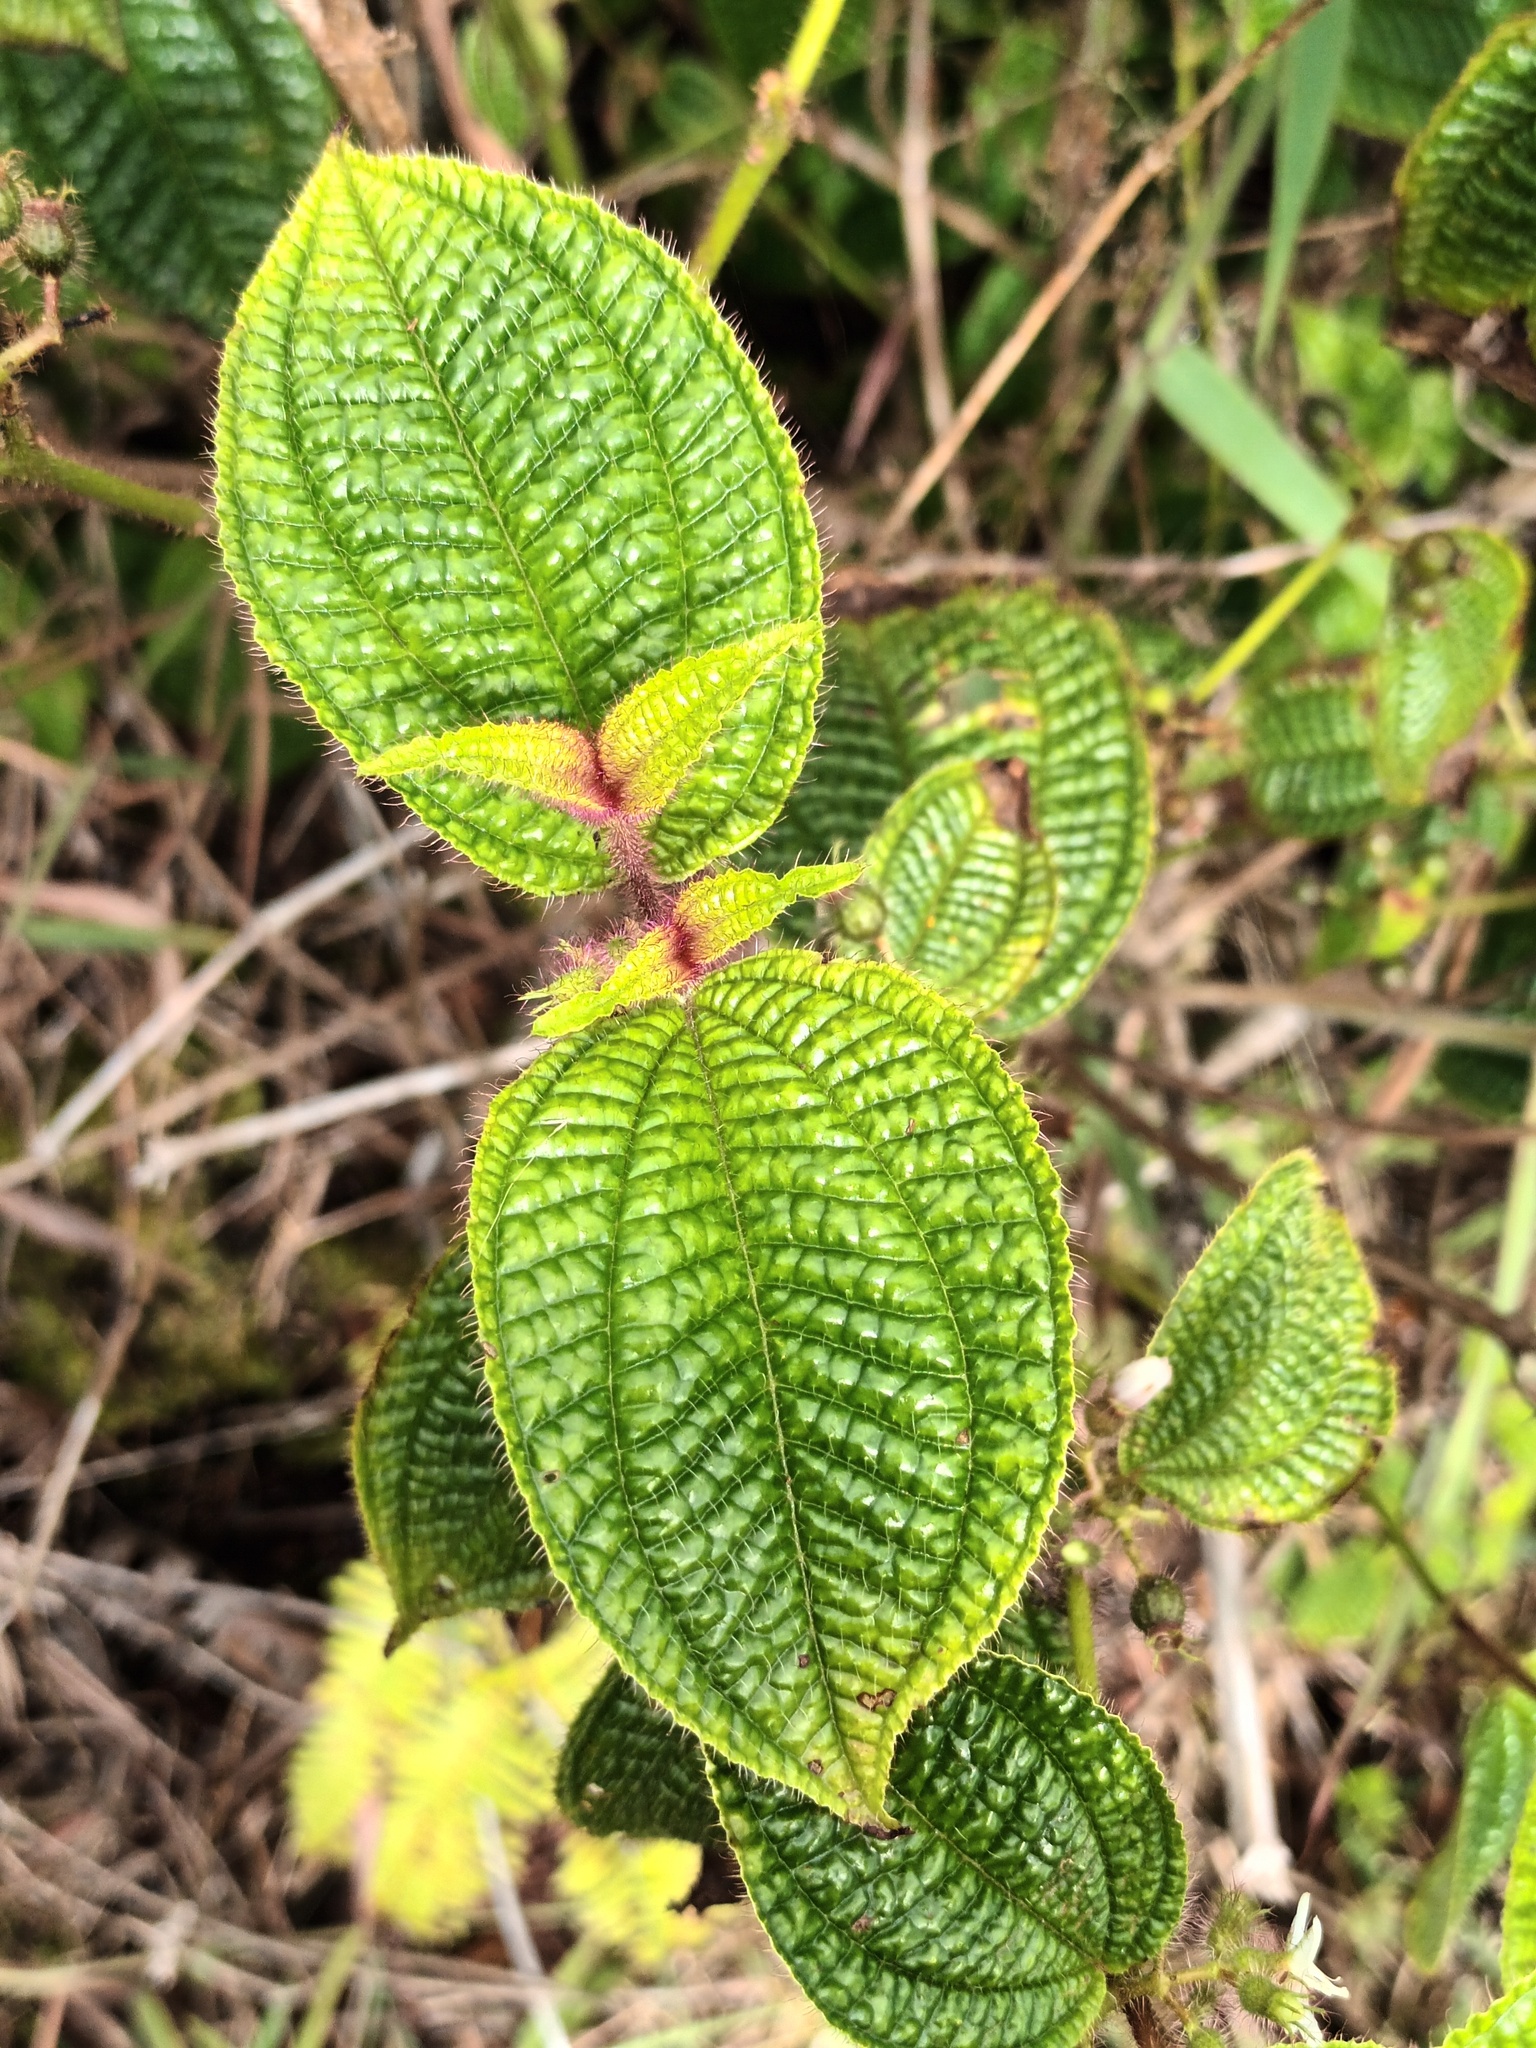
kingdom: Plantae
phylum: Tracheophyta
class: Magnoliopsida
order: Myrtales
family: Melastomataceae
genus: Miconia
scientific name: Miconia crenata
